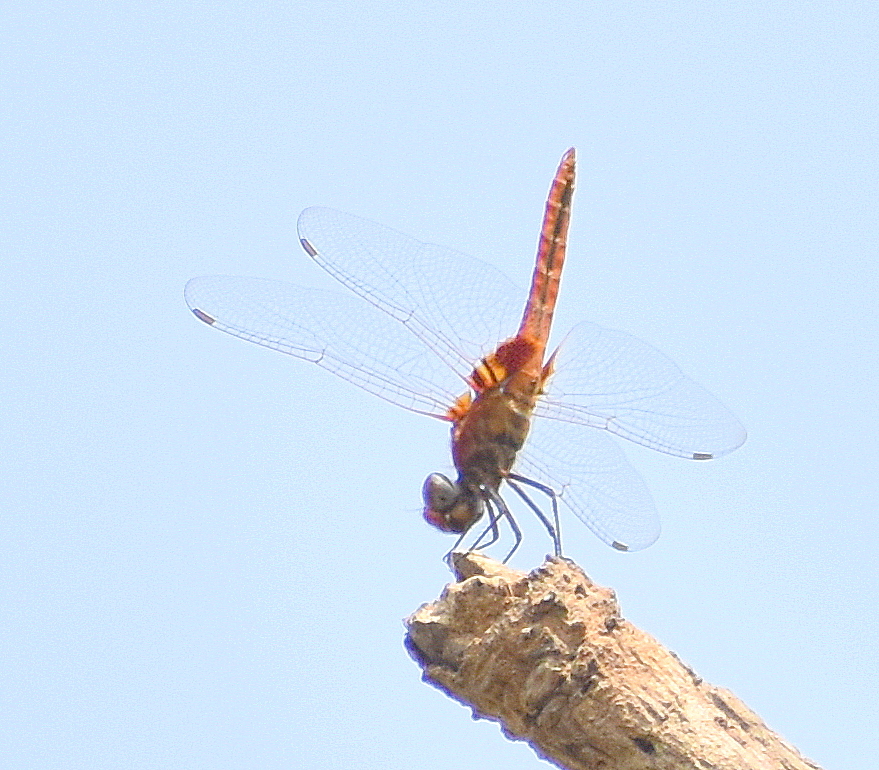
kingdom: Animalia
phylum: Arthropoda
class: Insecta
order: Odonata
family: Libellulidae
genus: Urothemis
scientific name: Urothemis signata
